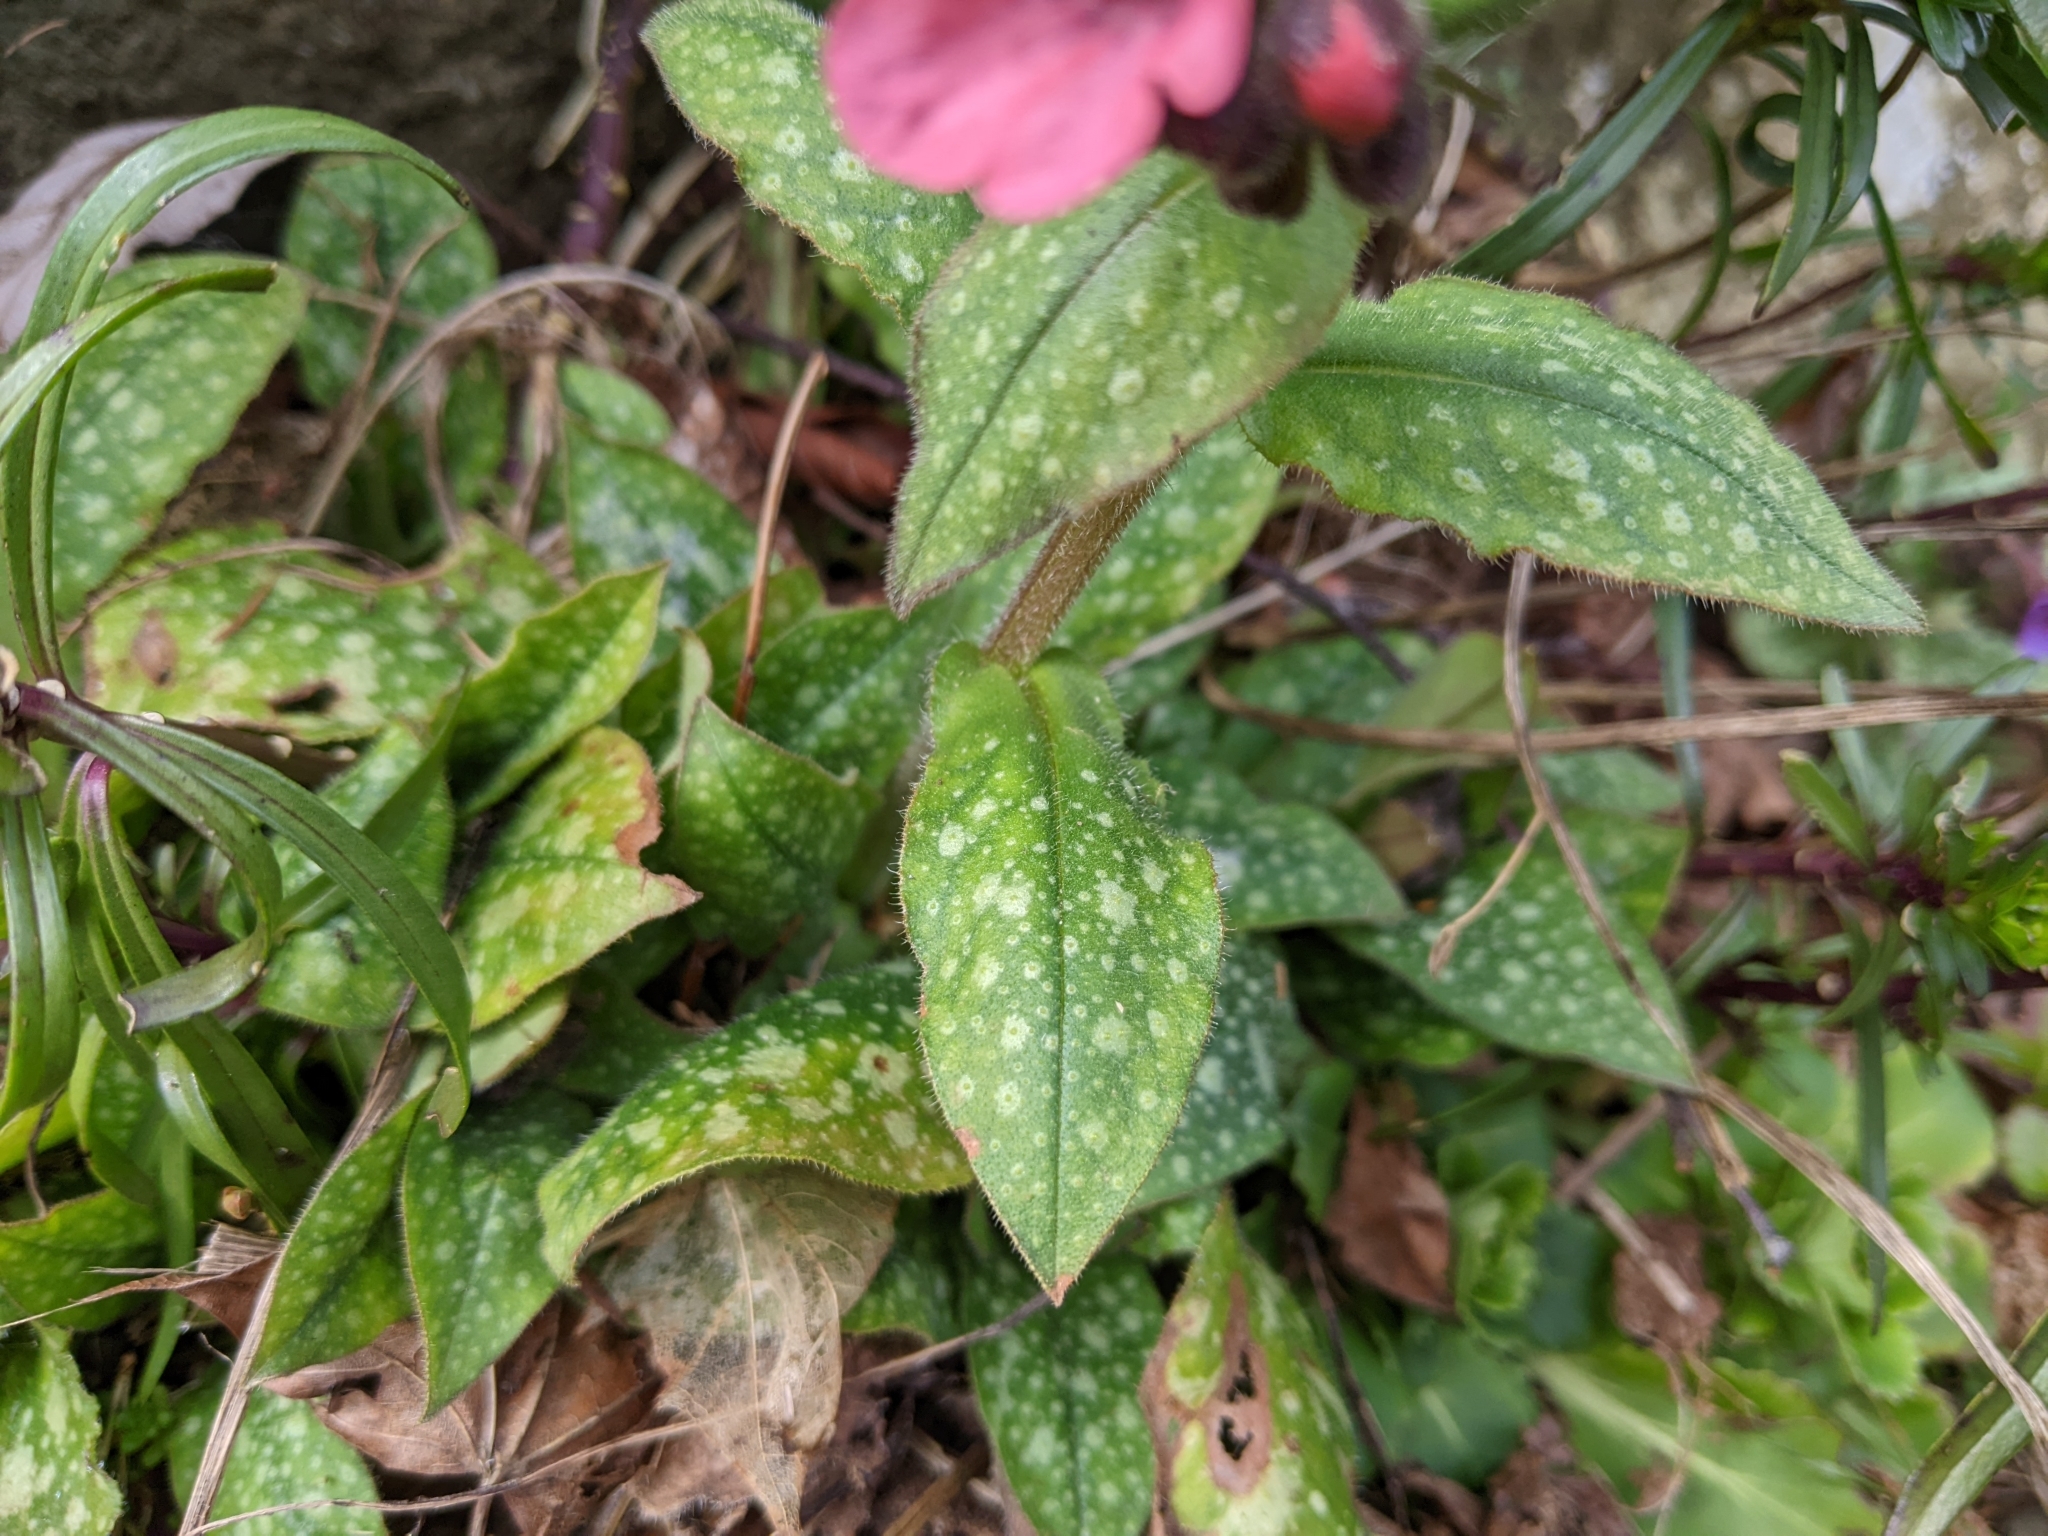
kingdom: Plantae
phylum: Tracheophyta
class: Magnoliopsida
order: Boraginales
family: Boraginaceae
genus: Pulmonaria
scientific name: Pulmonaria officinalis
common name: Lungwort
